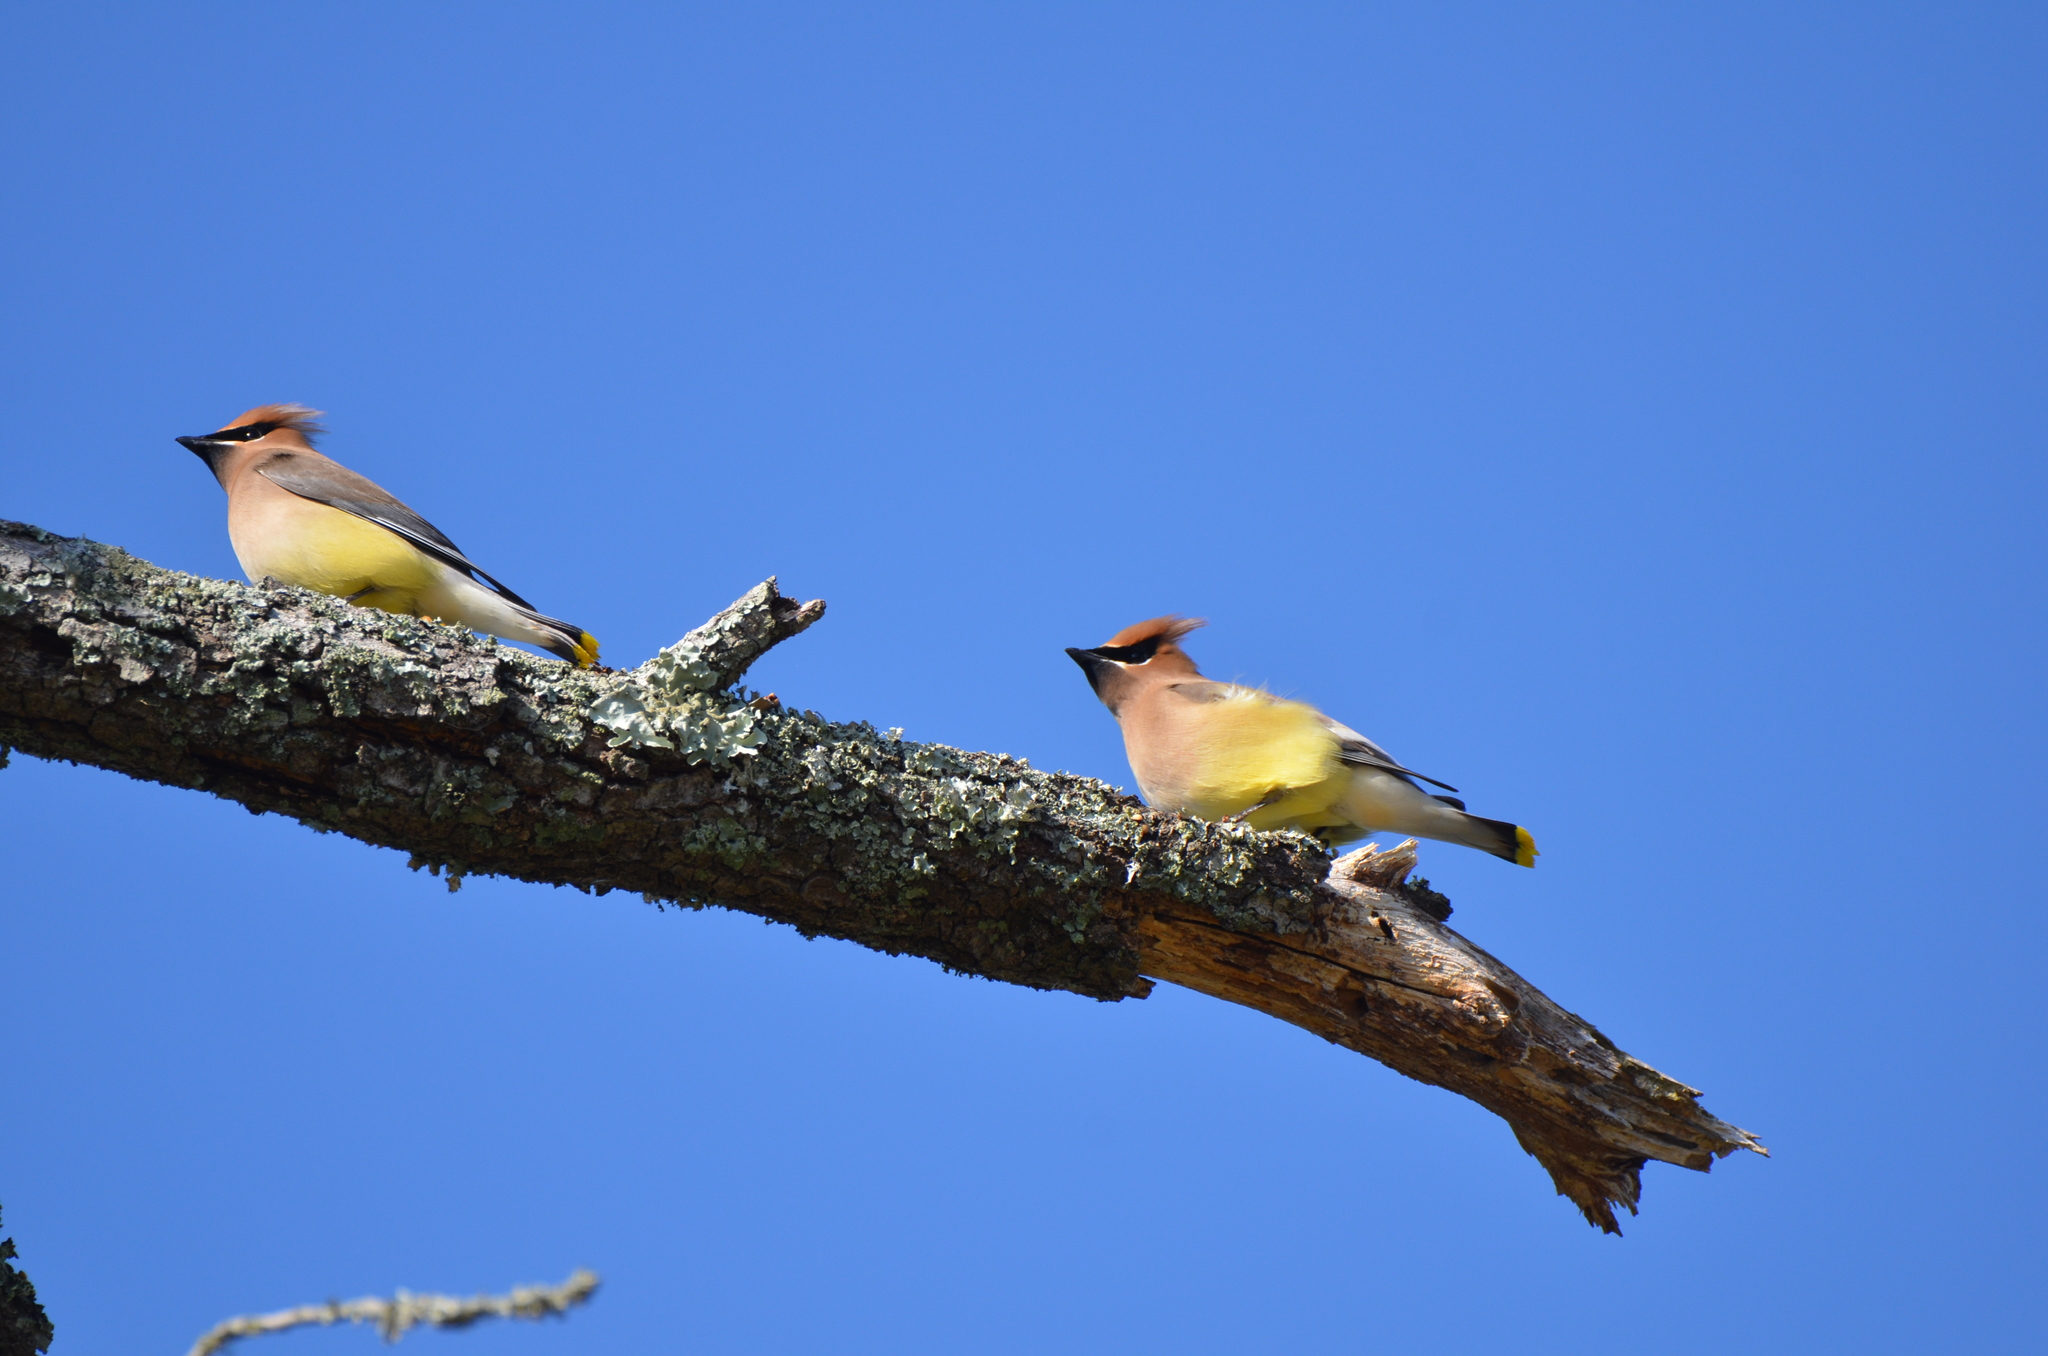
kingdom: Animalia
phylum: Chordata
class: Aves
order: Passeriformes
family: Bombycillidae
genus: Bombycilla
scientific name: Bombycilla cedrorum
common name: Cedar waxwing
